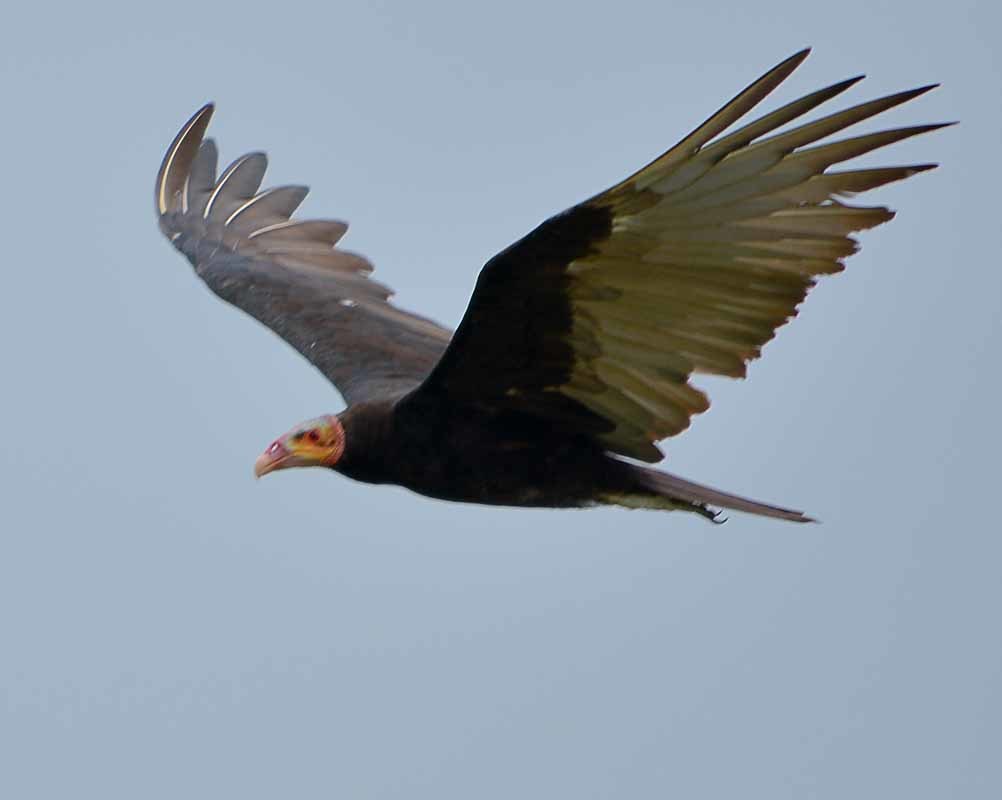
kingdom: Animalia
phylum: Chordata
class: Aves
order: Accipitriformes
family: Cathartidae
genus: Cathartes
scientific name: Cathartes burrovianus
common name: Lesser yellow-headed vulture
